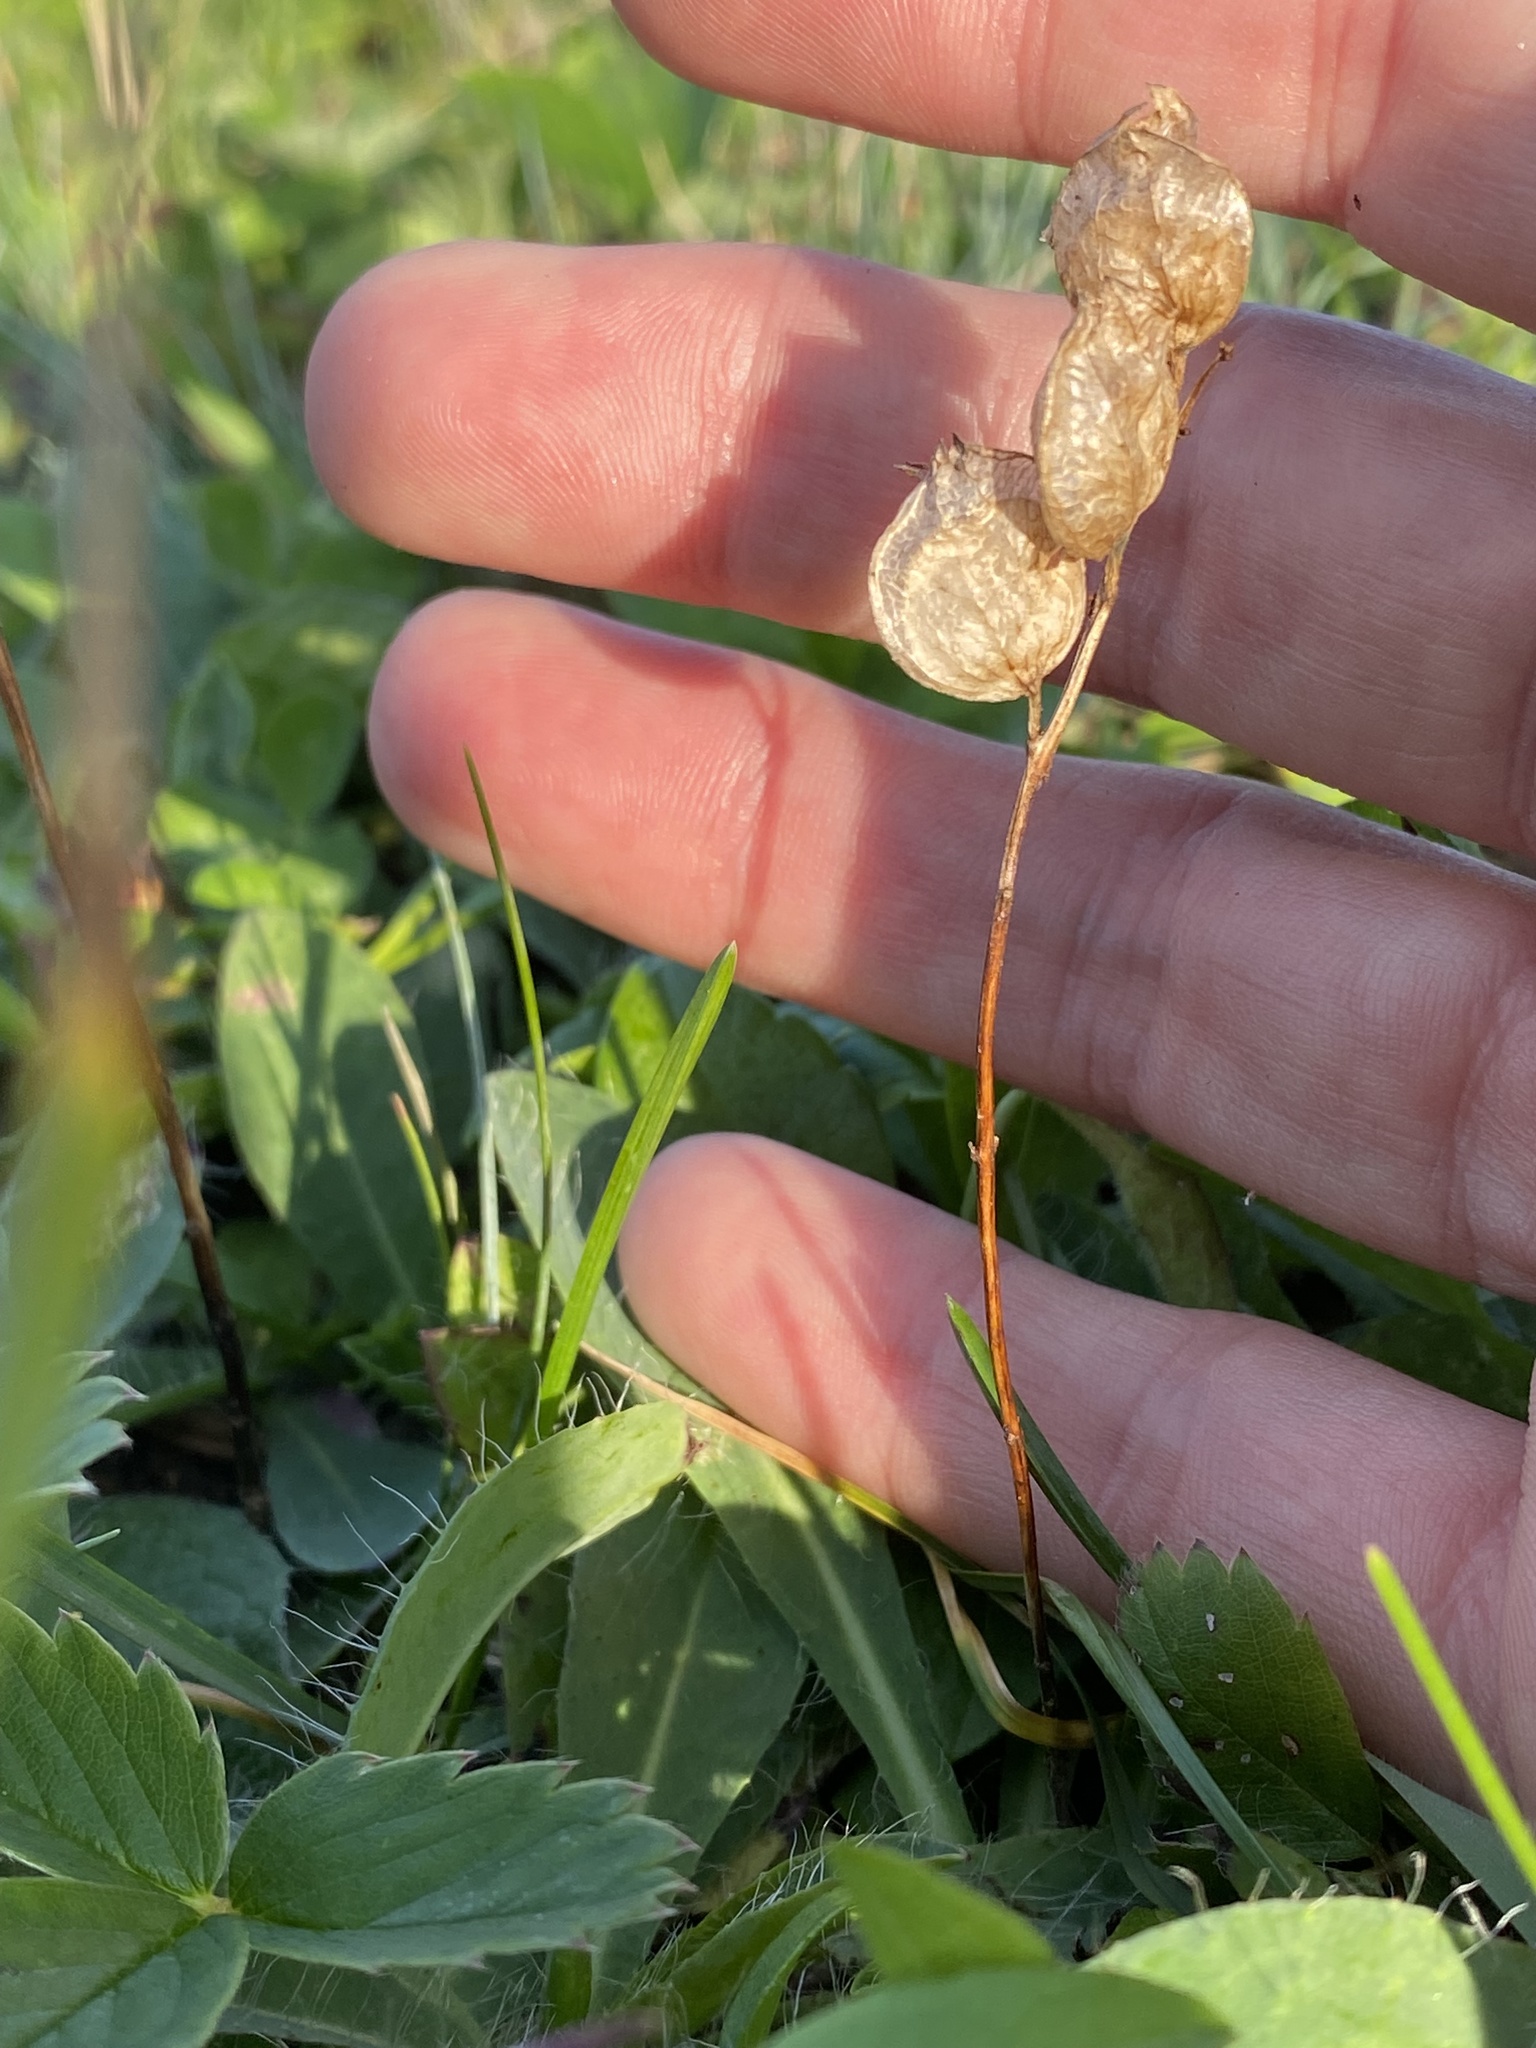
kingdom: Plantae
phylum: Tracheophyta
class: Magnoliopsida
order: Lamiales
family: Orobanchaceae
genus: Rhinanthus
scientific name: Rhinanthus minor
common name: Yellow-rattle
